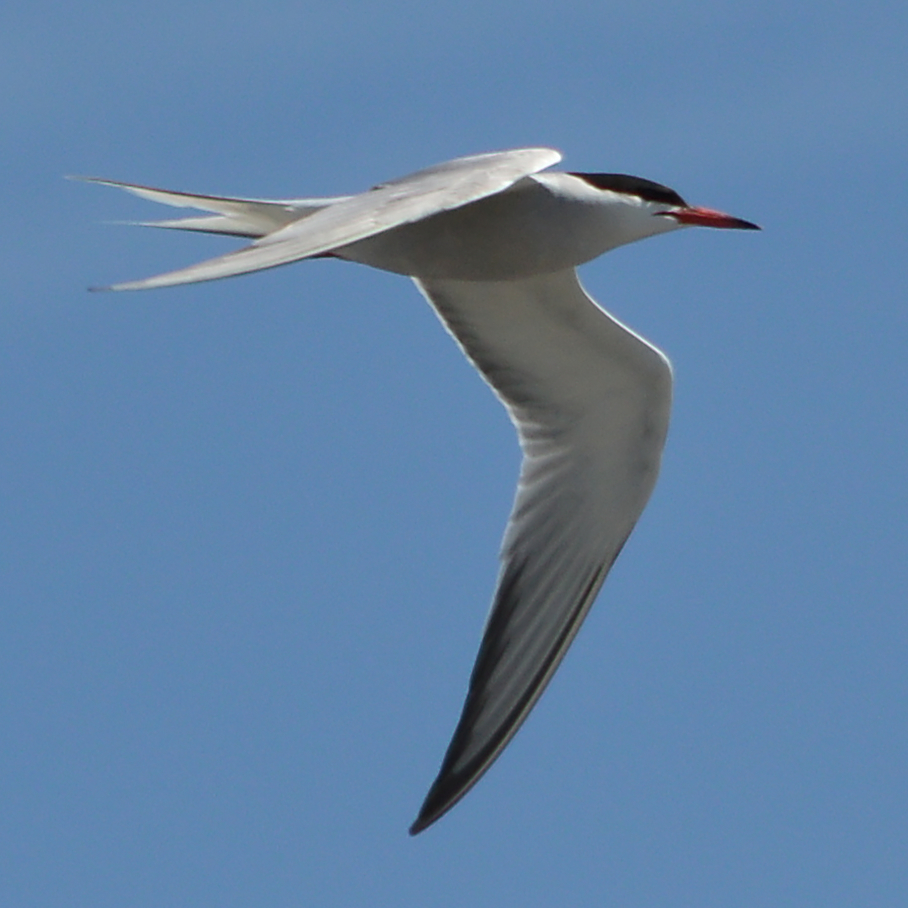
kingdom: Animalia
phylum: Chordata
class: Aves
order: Charadriiformes
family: Laridae
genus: Sterna
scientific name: Sterna hirundo
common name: Common tern
